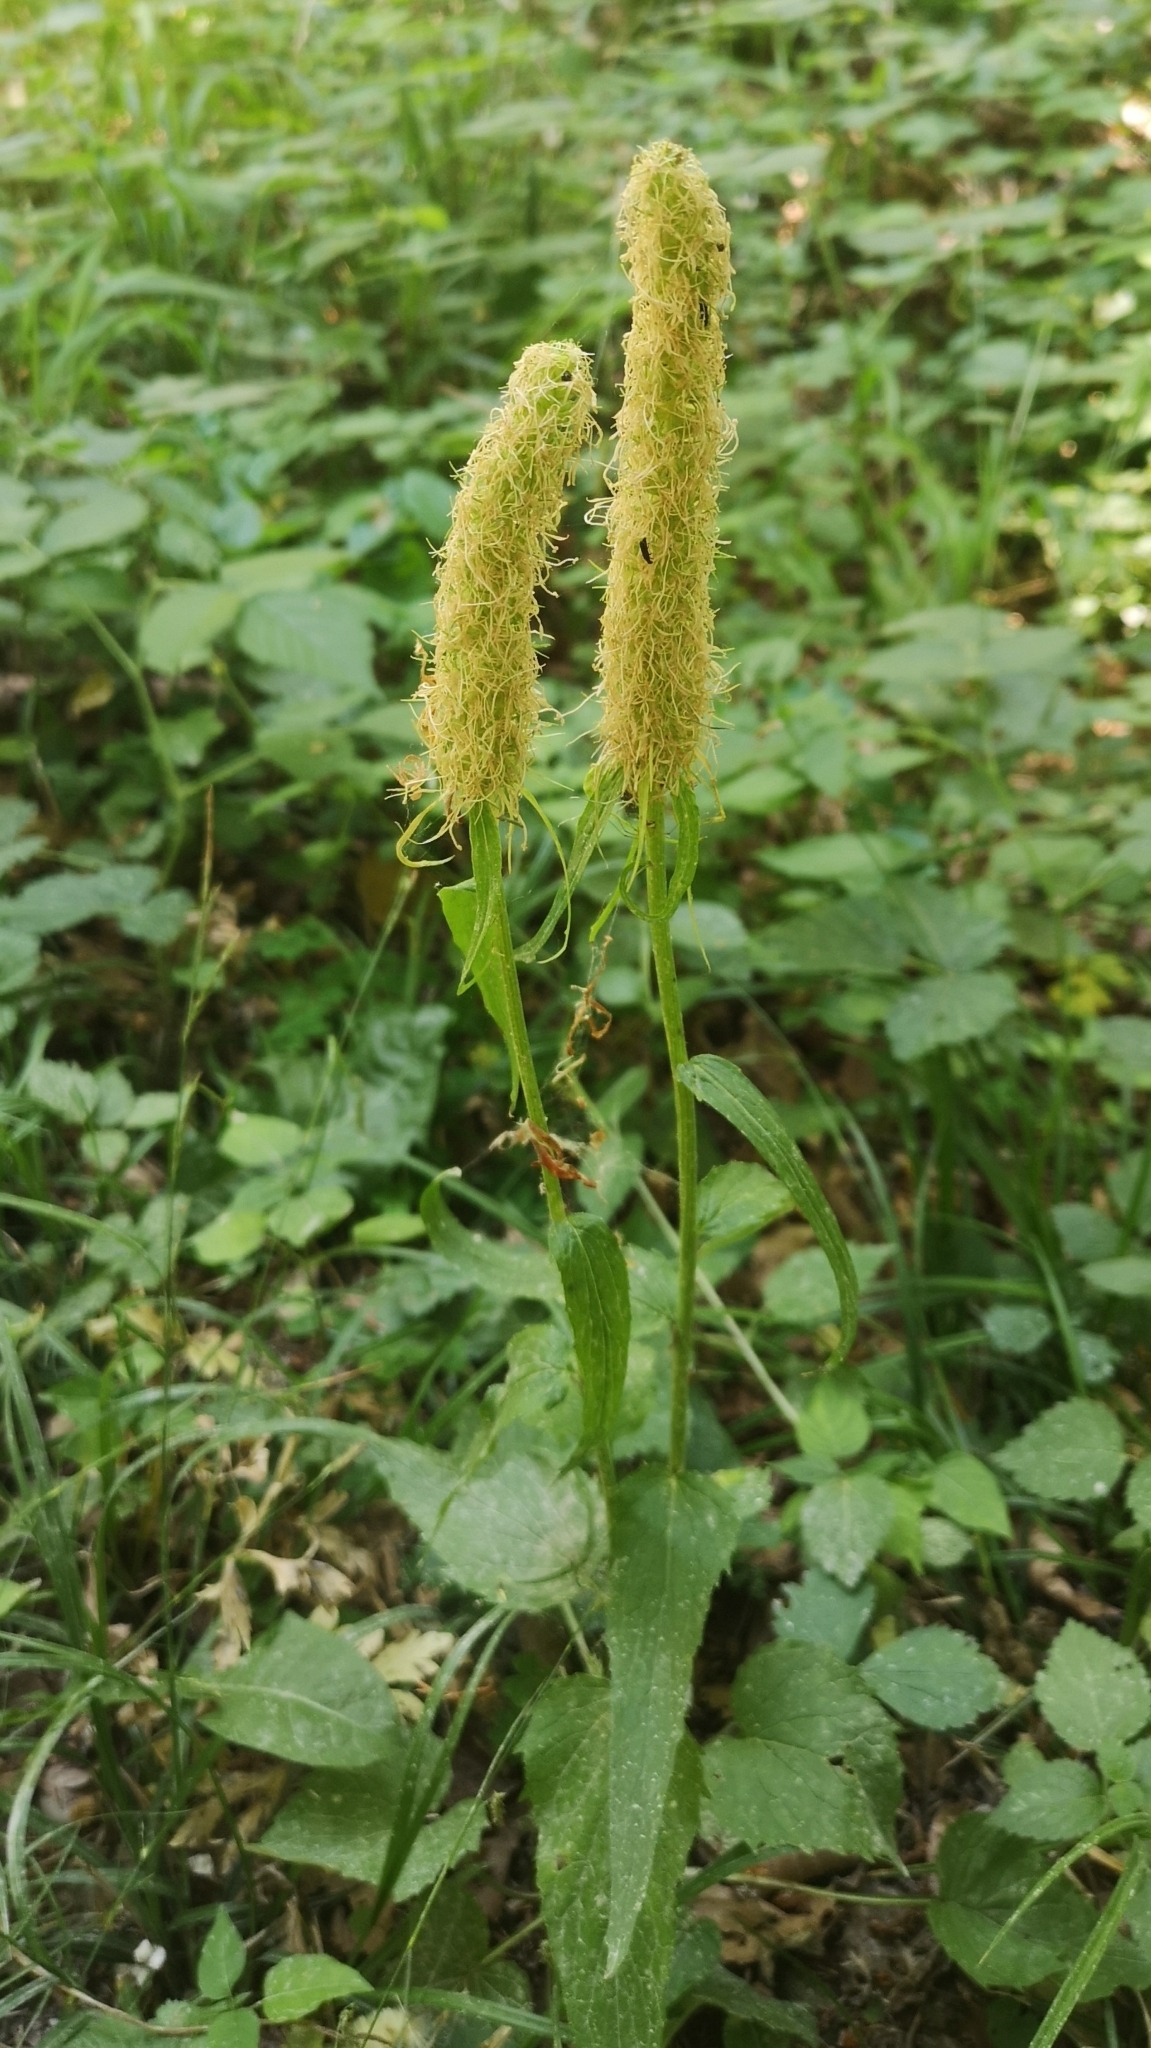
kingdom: Plantae
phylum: Tracheophyta
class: Magnoliopsida
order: Asterales
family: Campanulaceae
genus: Phyteuma
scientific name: Phyteuma spicatum
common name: Spiked rampion
